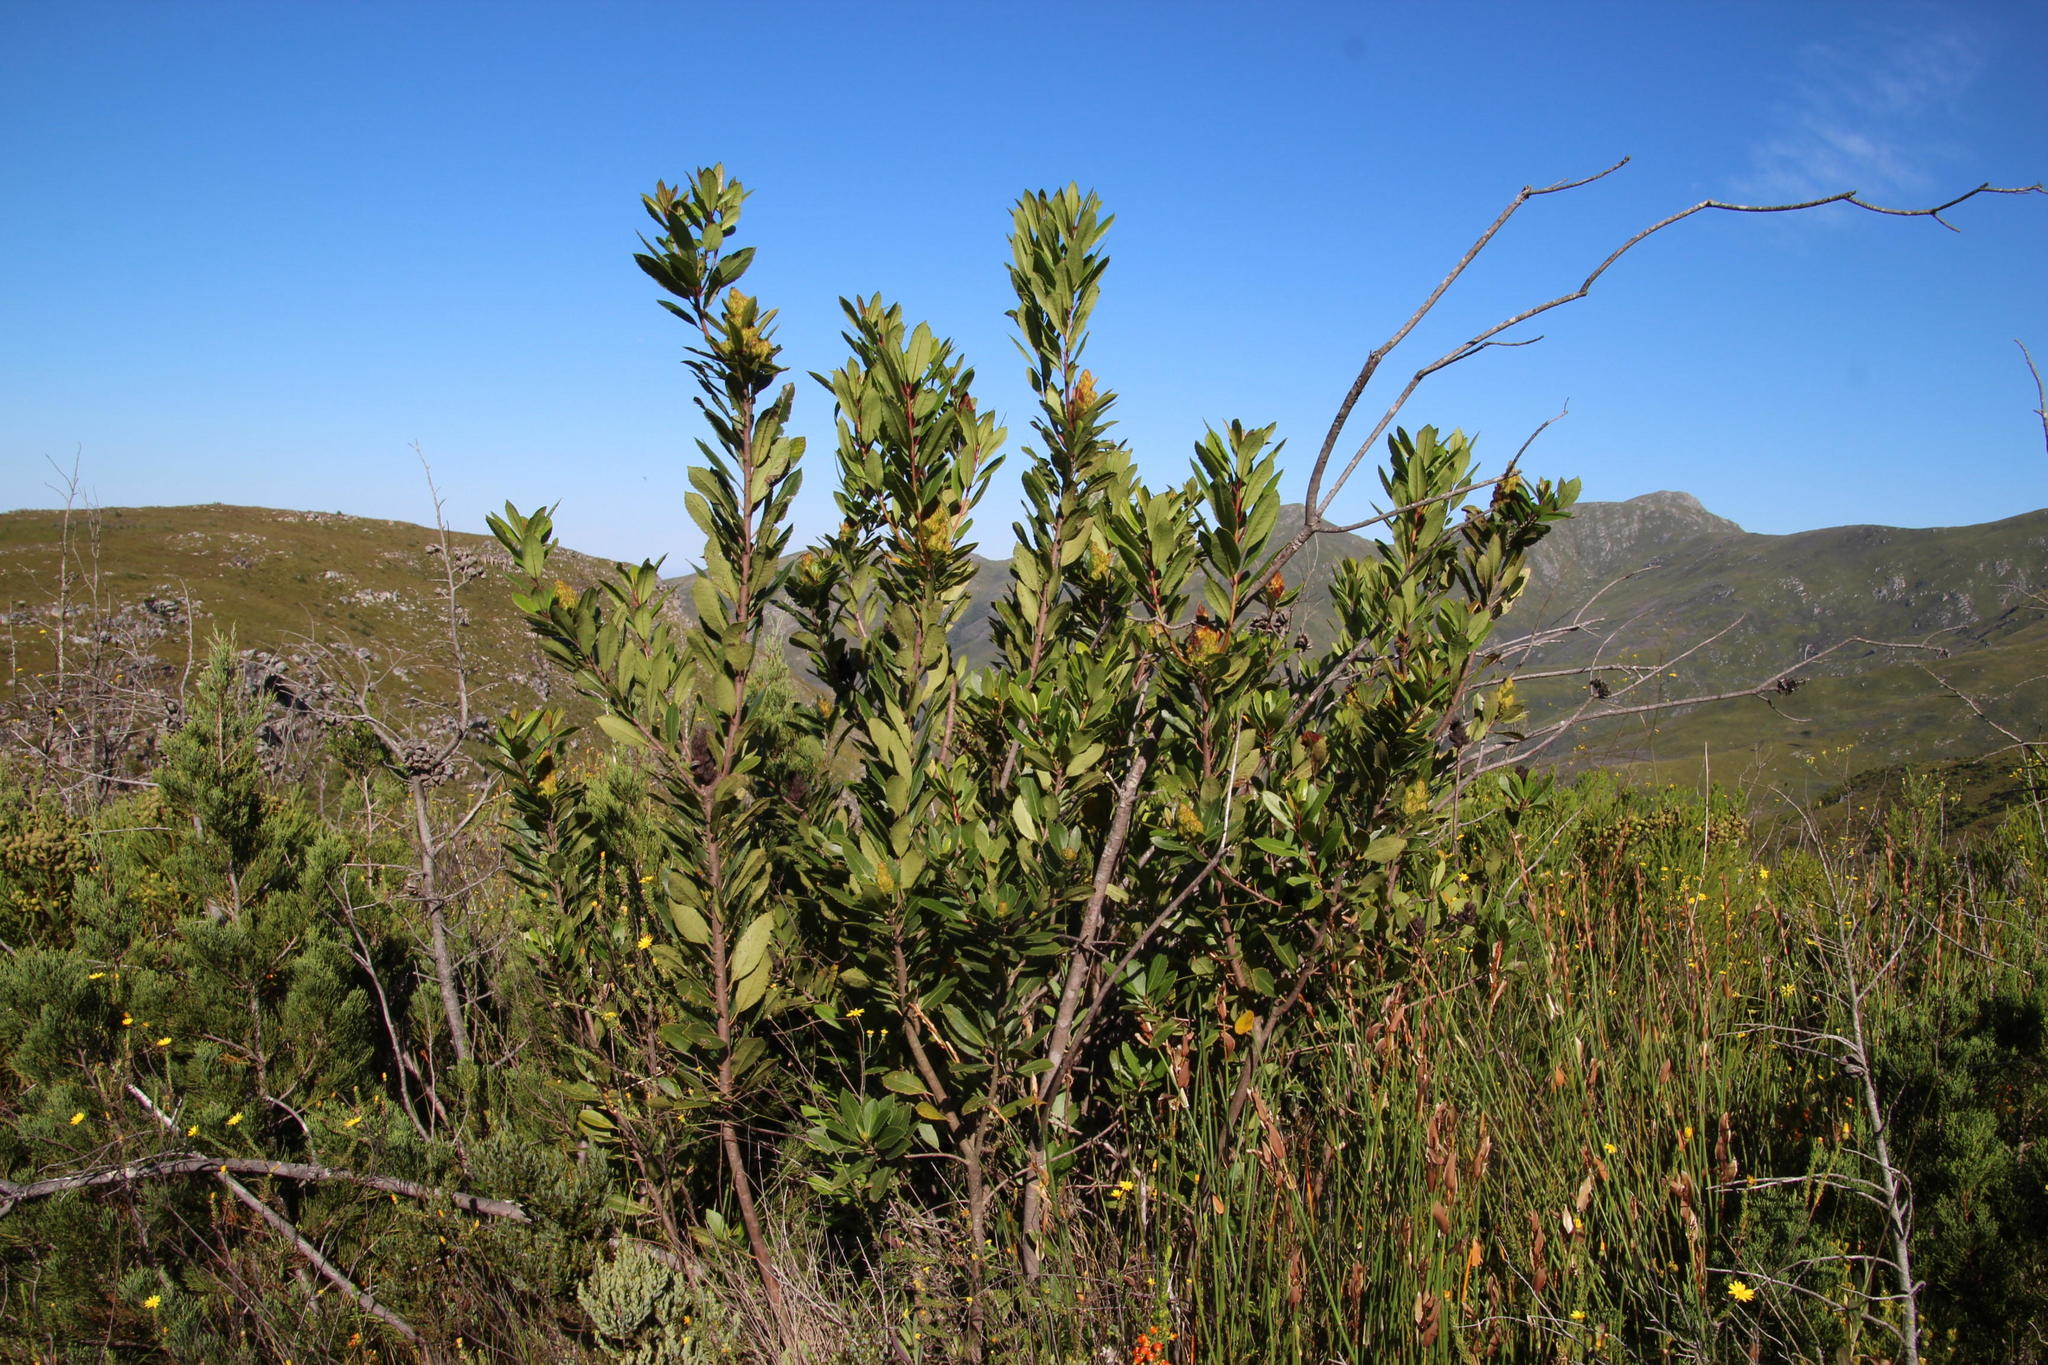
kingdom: Plantae
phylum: Tracheophyta
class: Magnoliopsida
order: Sapindales
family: Anacardiaceae
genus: Laurophyllus
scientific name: Laurophyllus capensis
